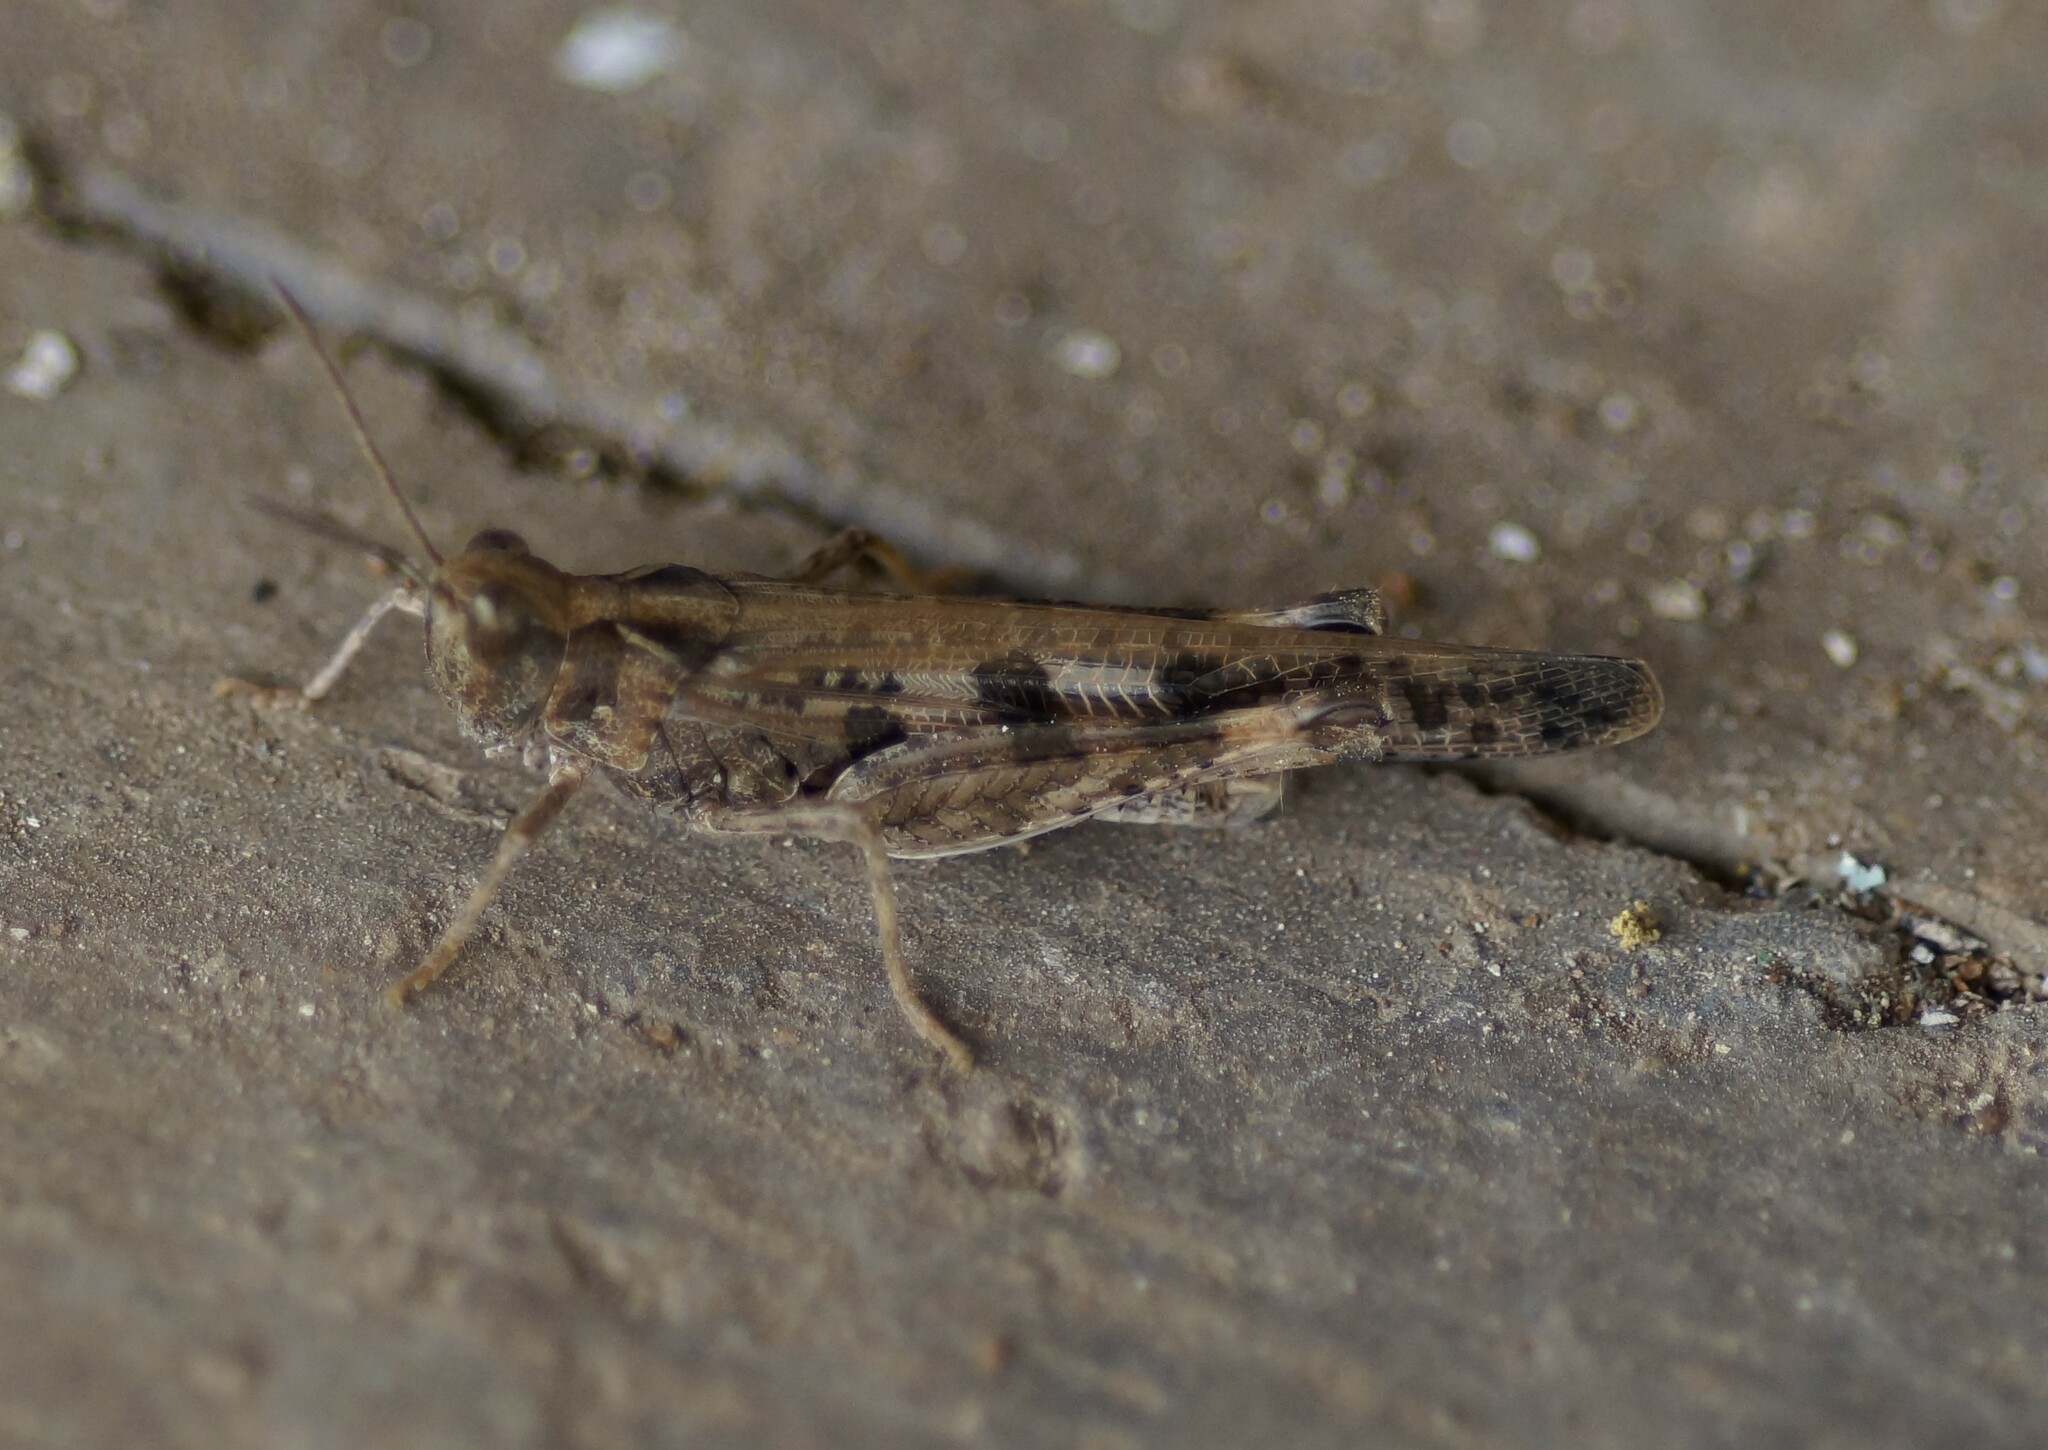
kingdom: Animalia
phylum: Arthropoda
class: Insecta
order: Orthoptera
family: Acrididae
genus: Chortoicetes
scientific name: Chortoicetes terminifera
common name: Australian plague locust
